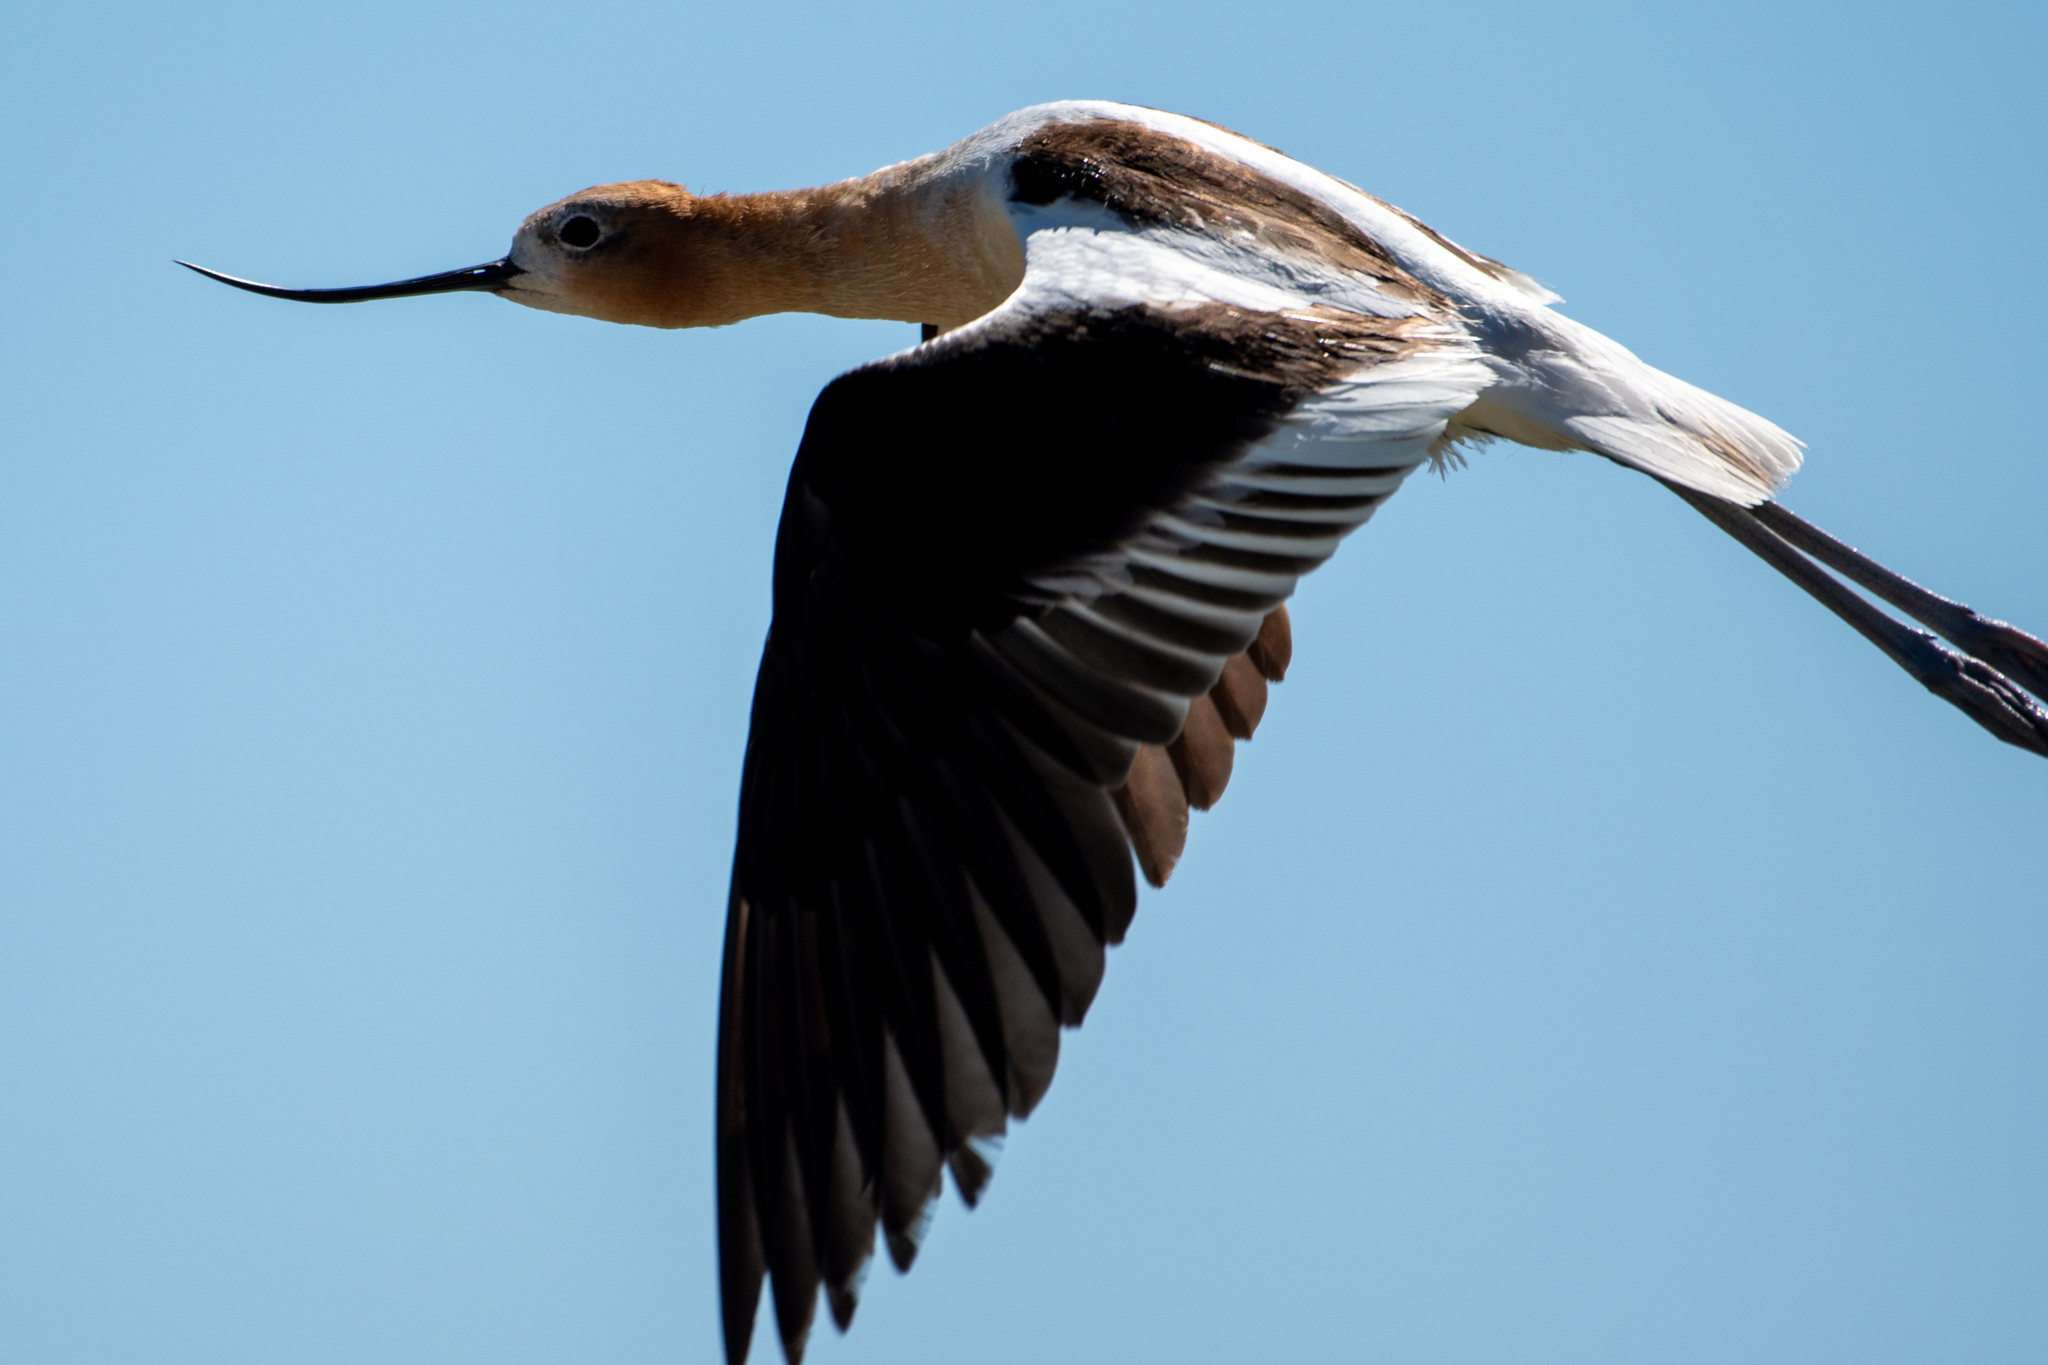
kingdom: Animalia
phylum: Chordata
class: Aves
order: Charadriiformes
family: Recurvirostridae
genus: Recurvirostra
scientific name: Recurvirostra americana
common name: American avocet
